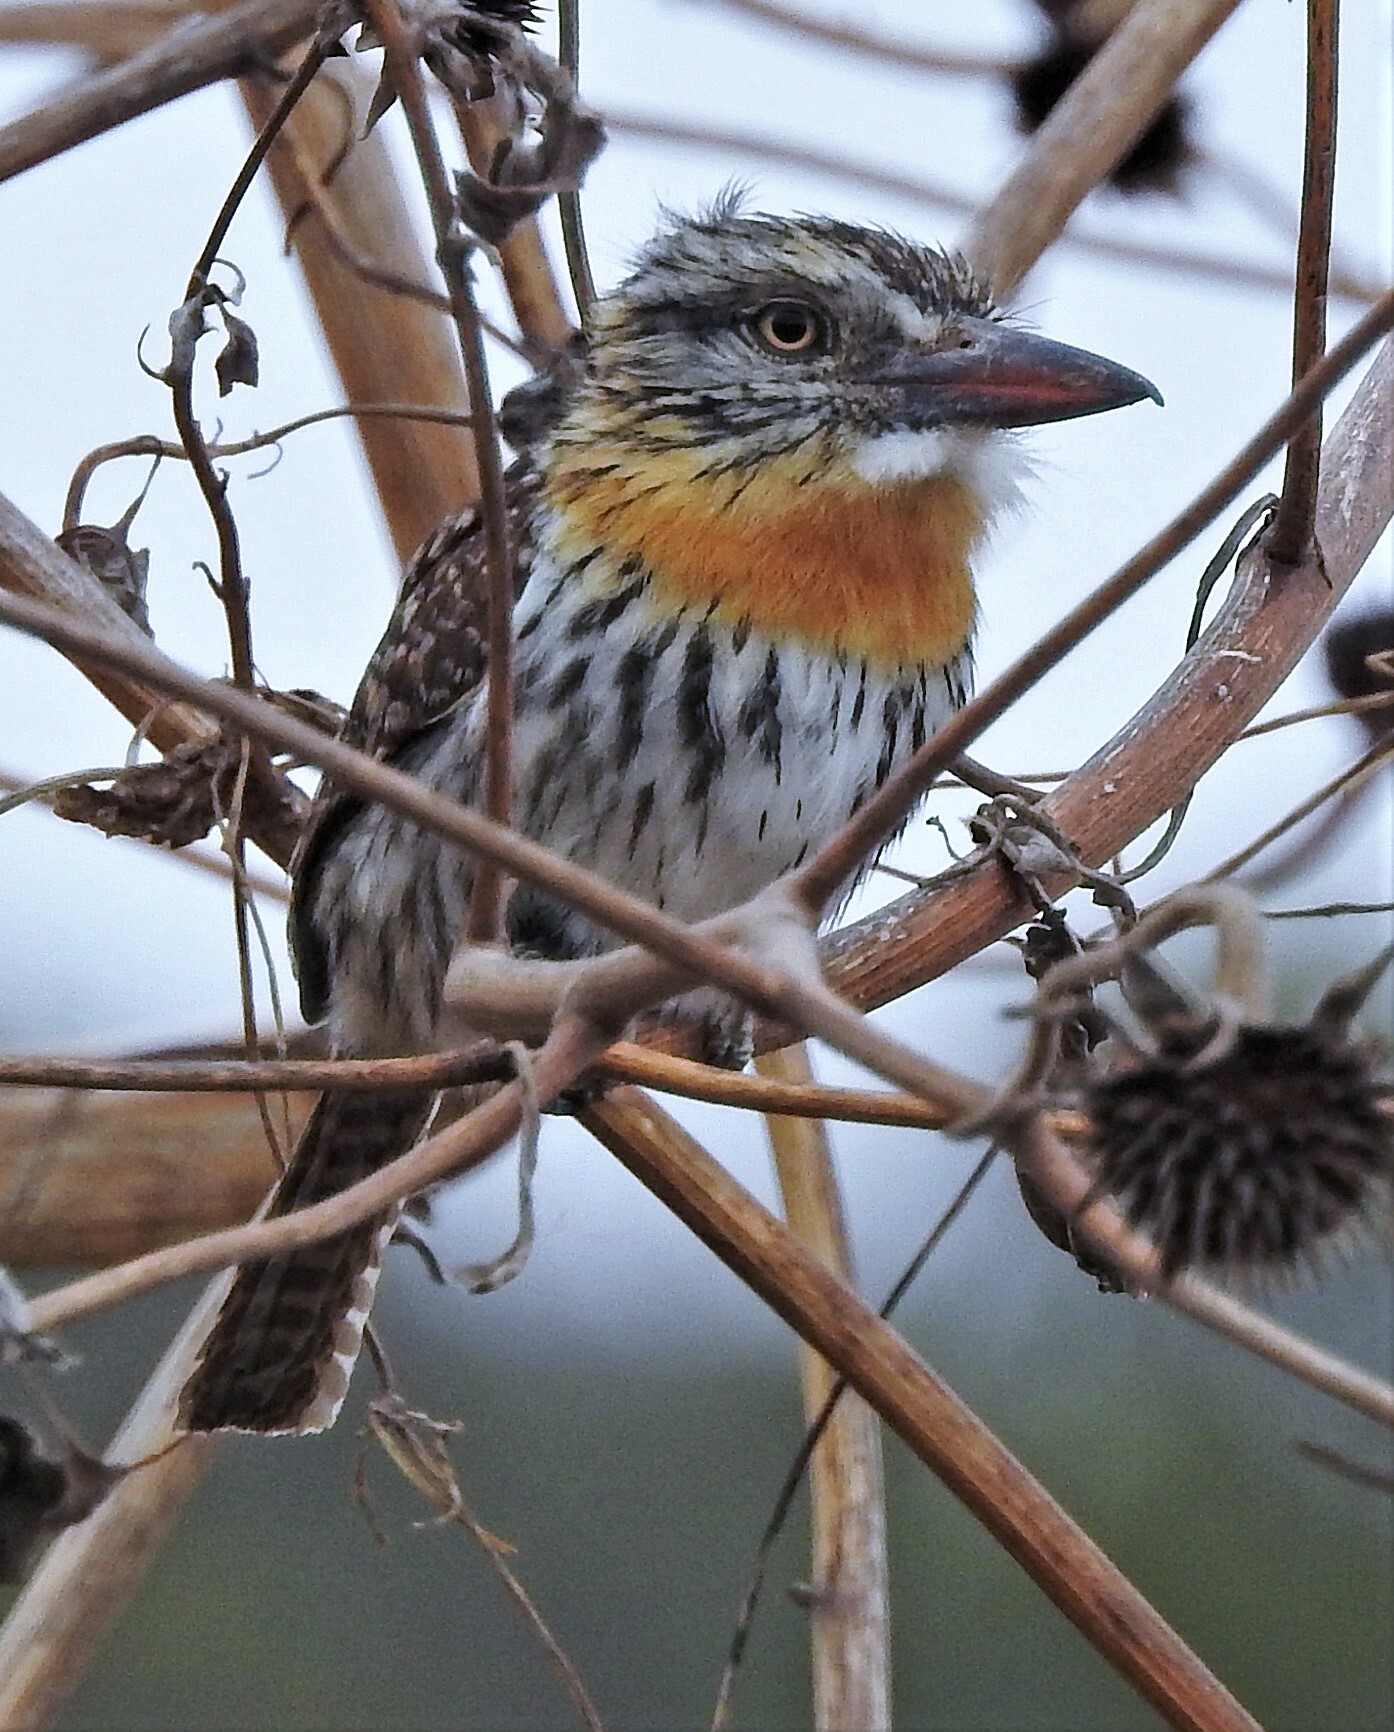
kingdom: Animalia
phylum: Chordata
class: Aves
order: Piciformes
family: Bucconidae
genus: Nystalus
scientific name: Nystalus maculatus
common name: Caatinga puffbird
